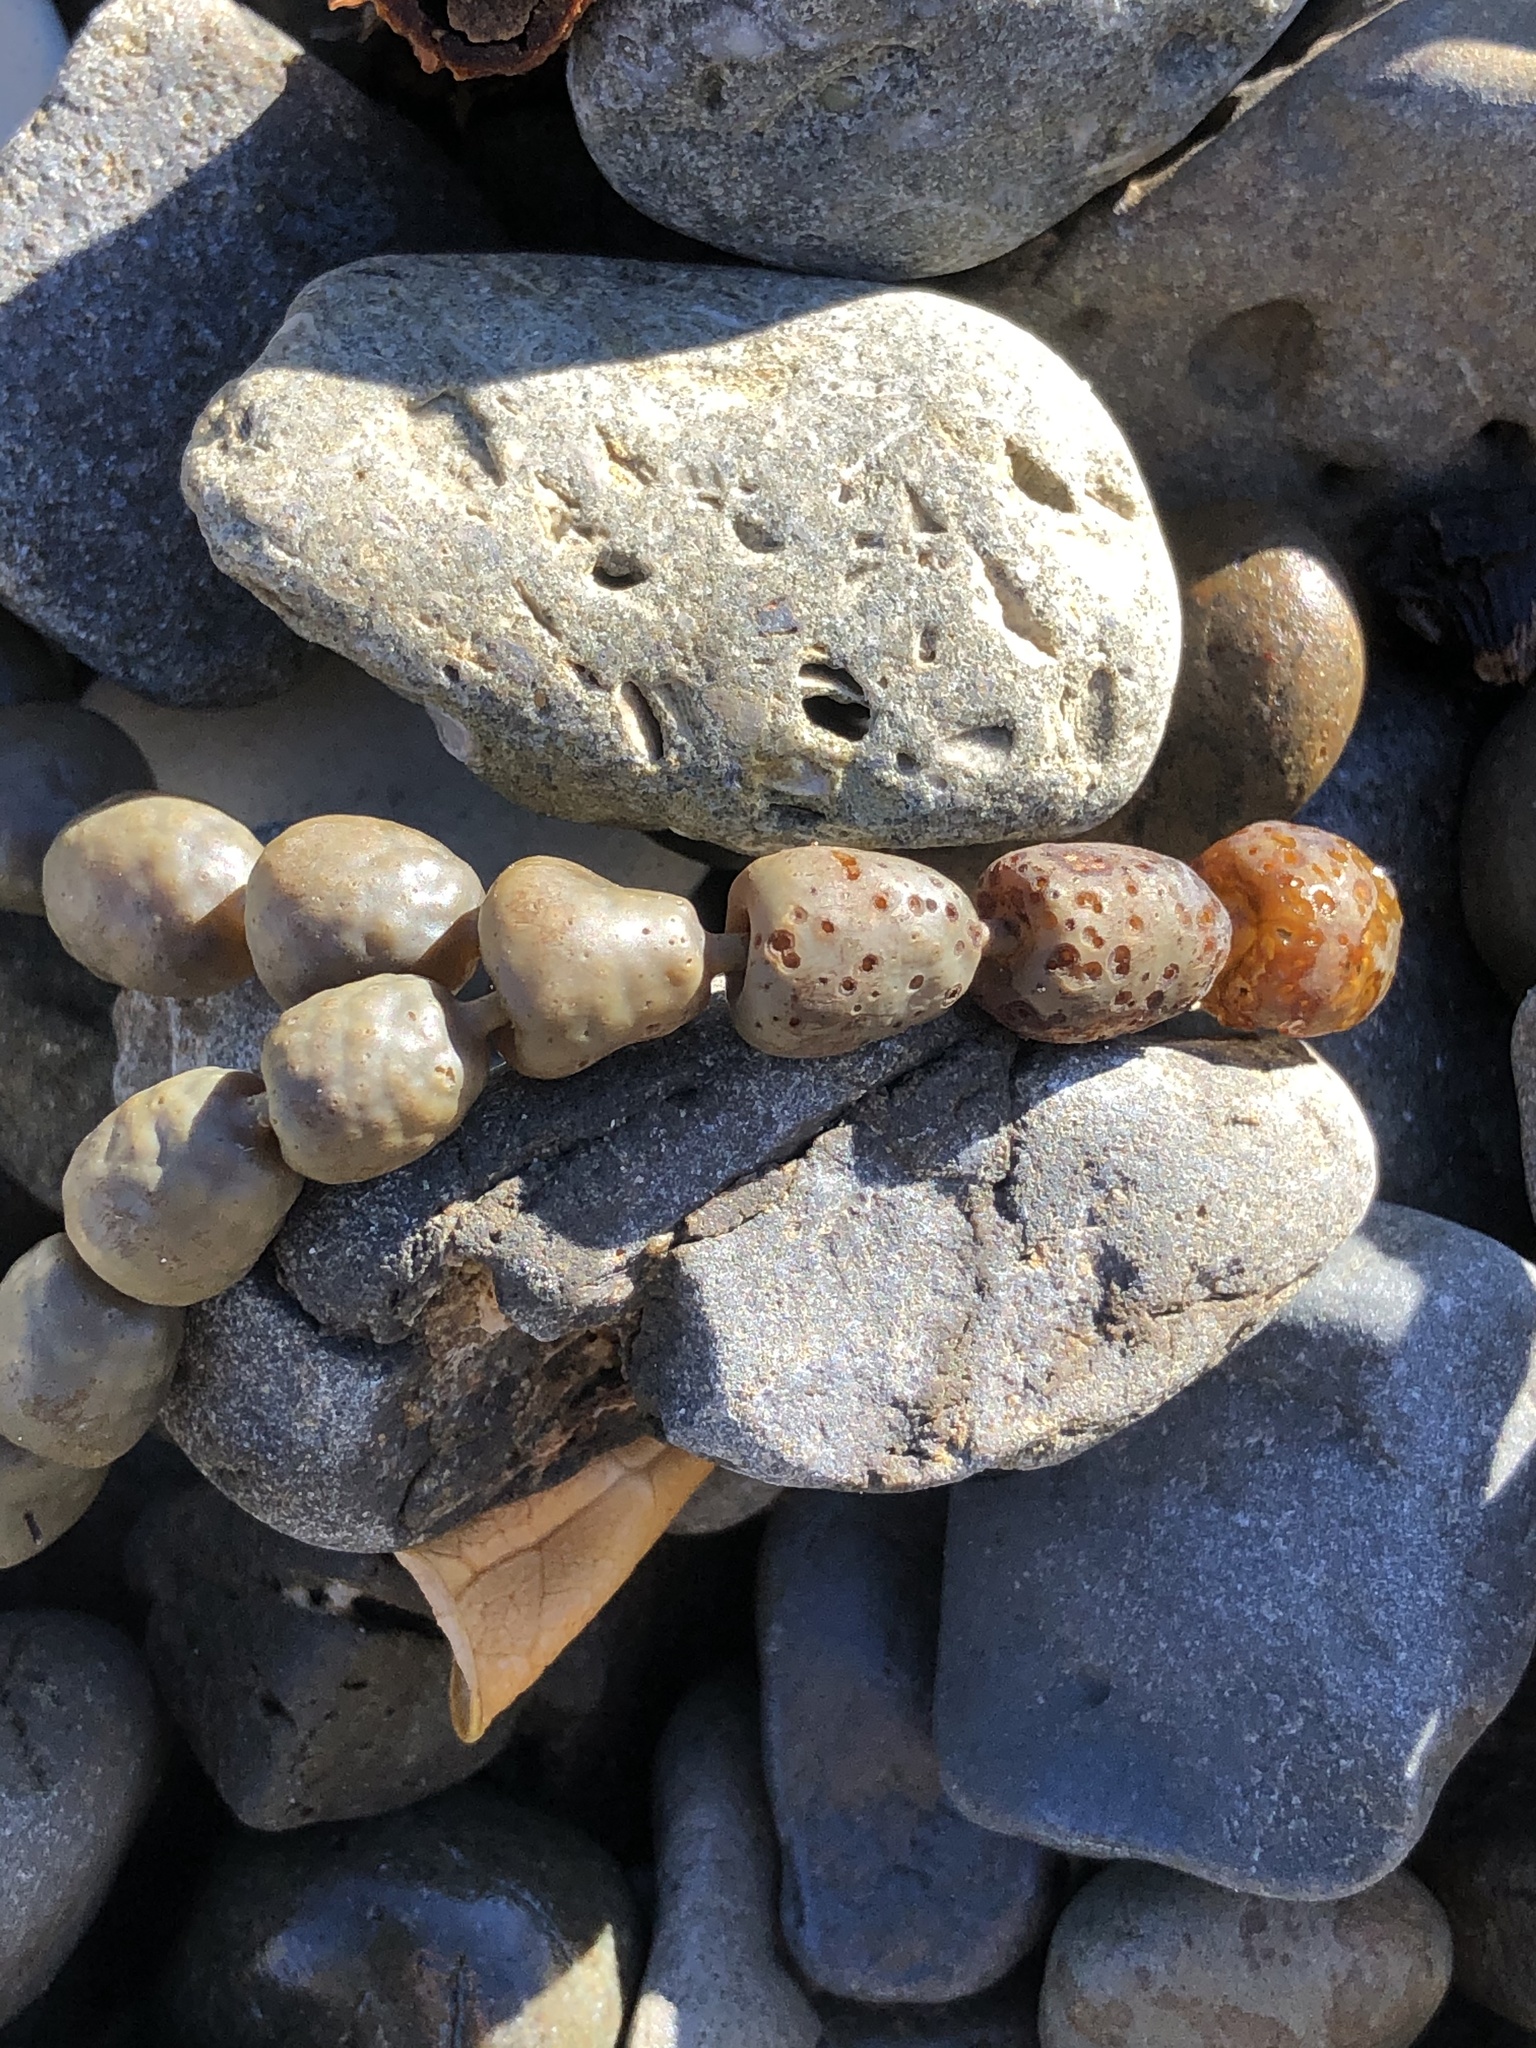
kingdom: Chromista
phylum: Ochrophyta
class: Phaeophyceae
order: Fucales
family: Hormosiraceae
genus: Hormosira
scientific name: Hormosira banksii
